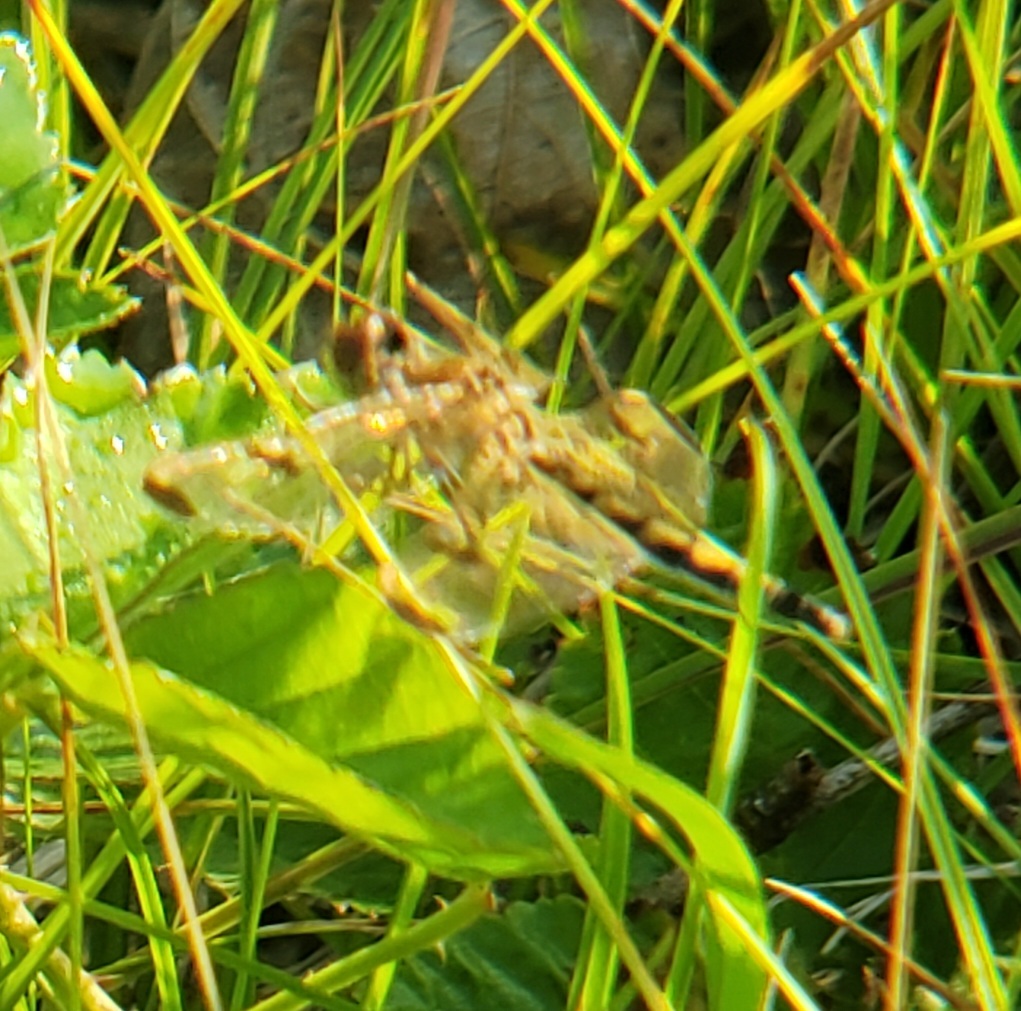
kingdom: Animalia
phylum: Arthropoda
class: Insecta
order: Odonata
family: Libellulidae
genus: Celithemis
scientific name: Celithemis elisa
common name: Calico pennant
